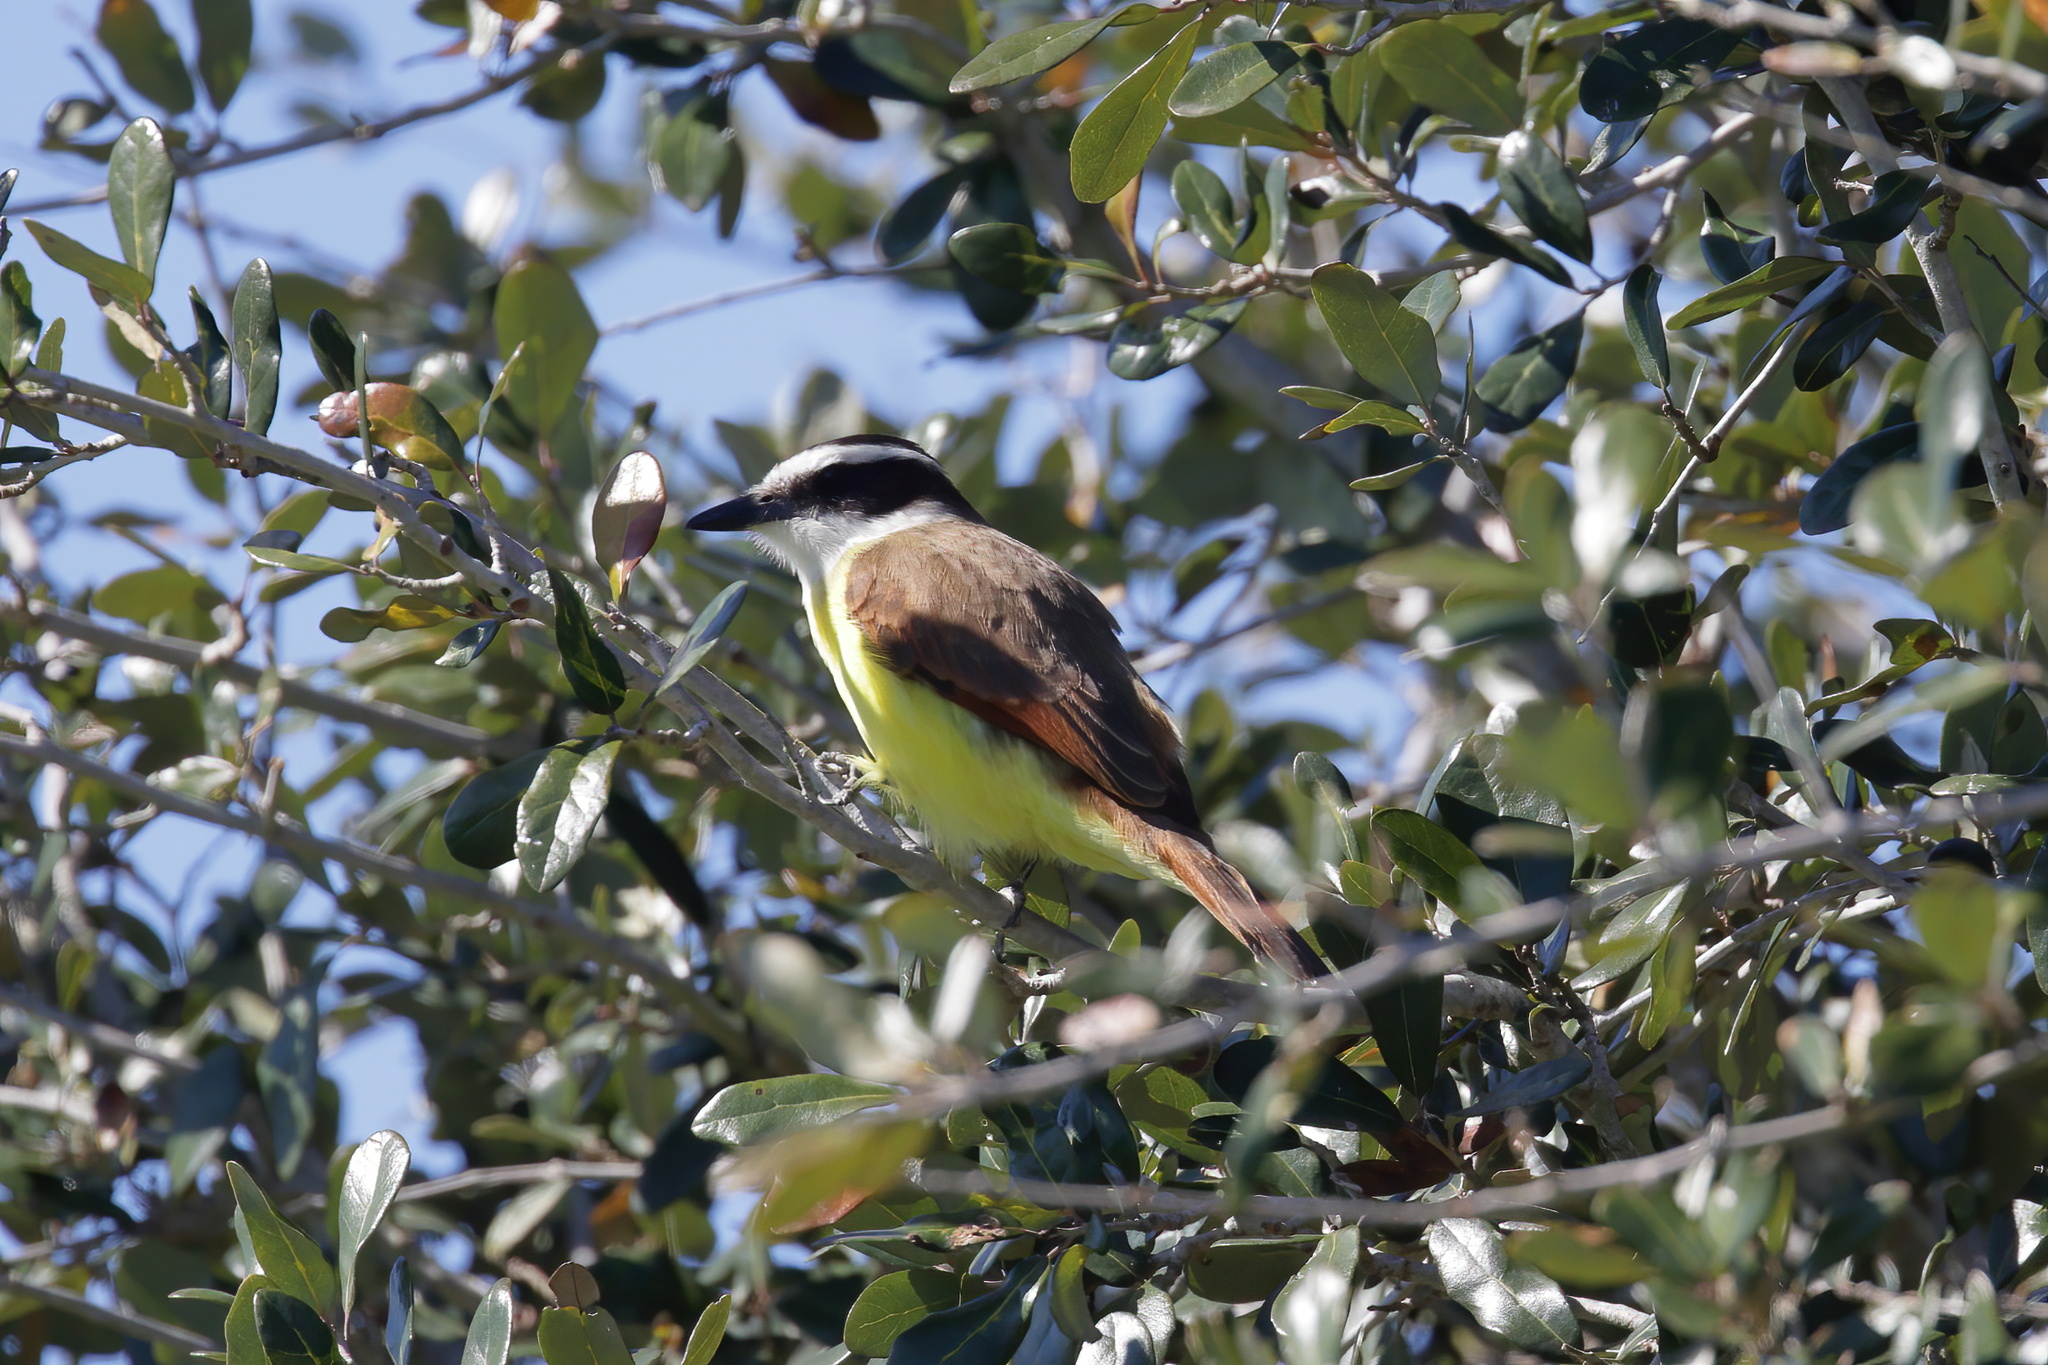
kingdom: Animalia
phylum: Chordata
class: Aves
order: Passeriformes
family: Tyrannidae
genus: Pitangus
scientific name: Pitangus sulphuratus
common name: Great kiskadee
